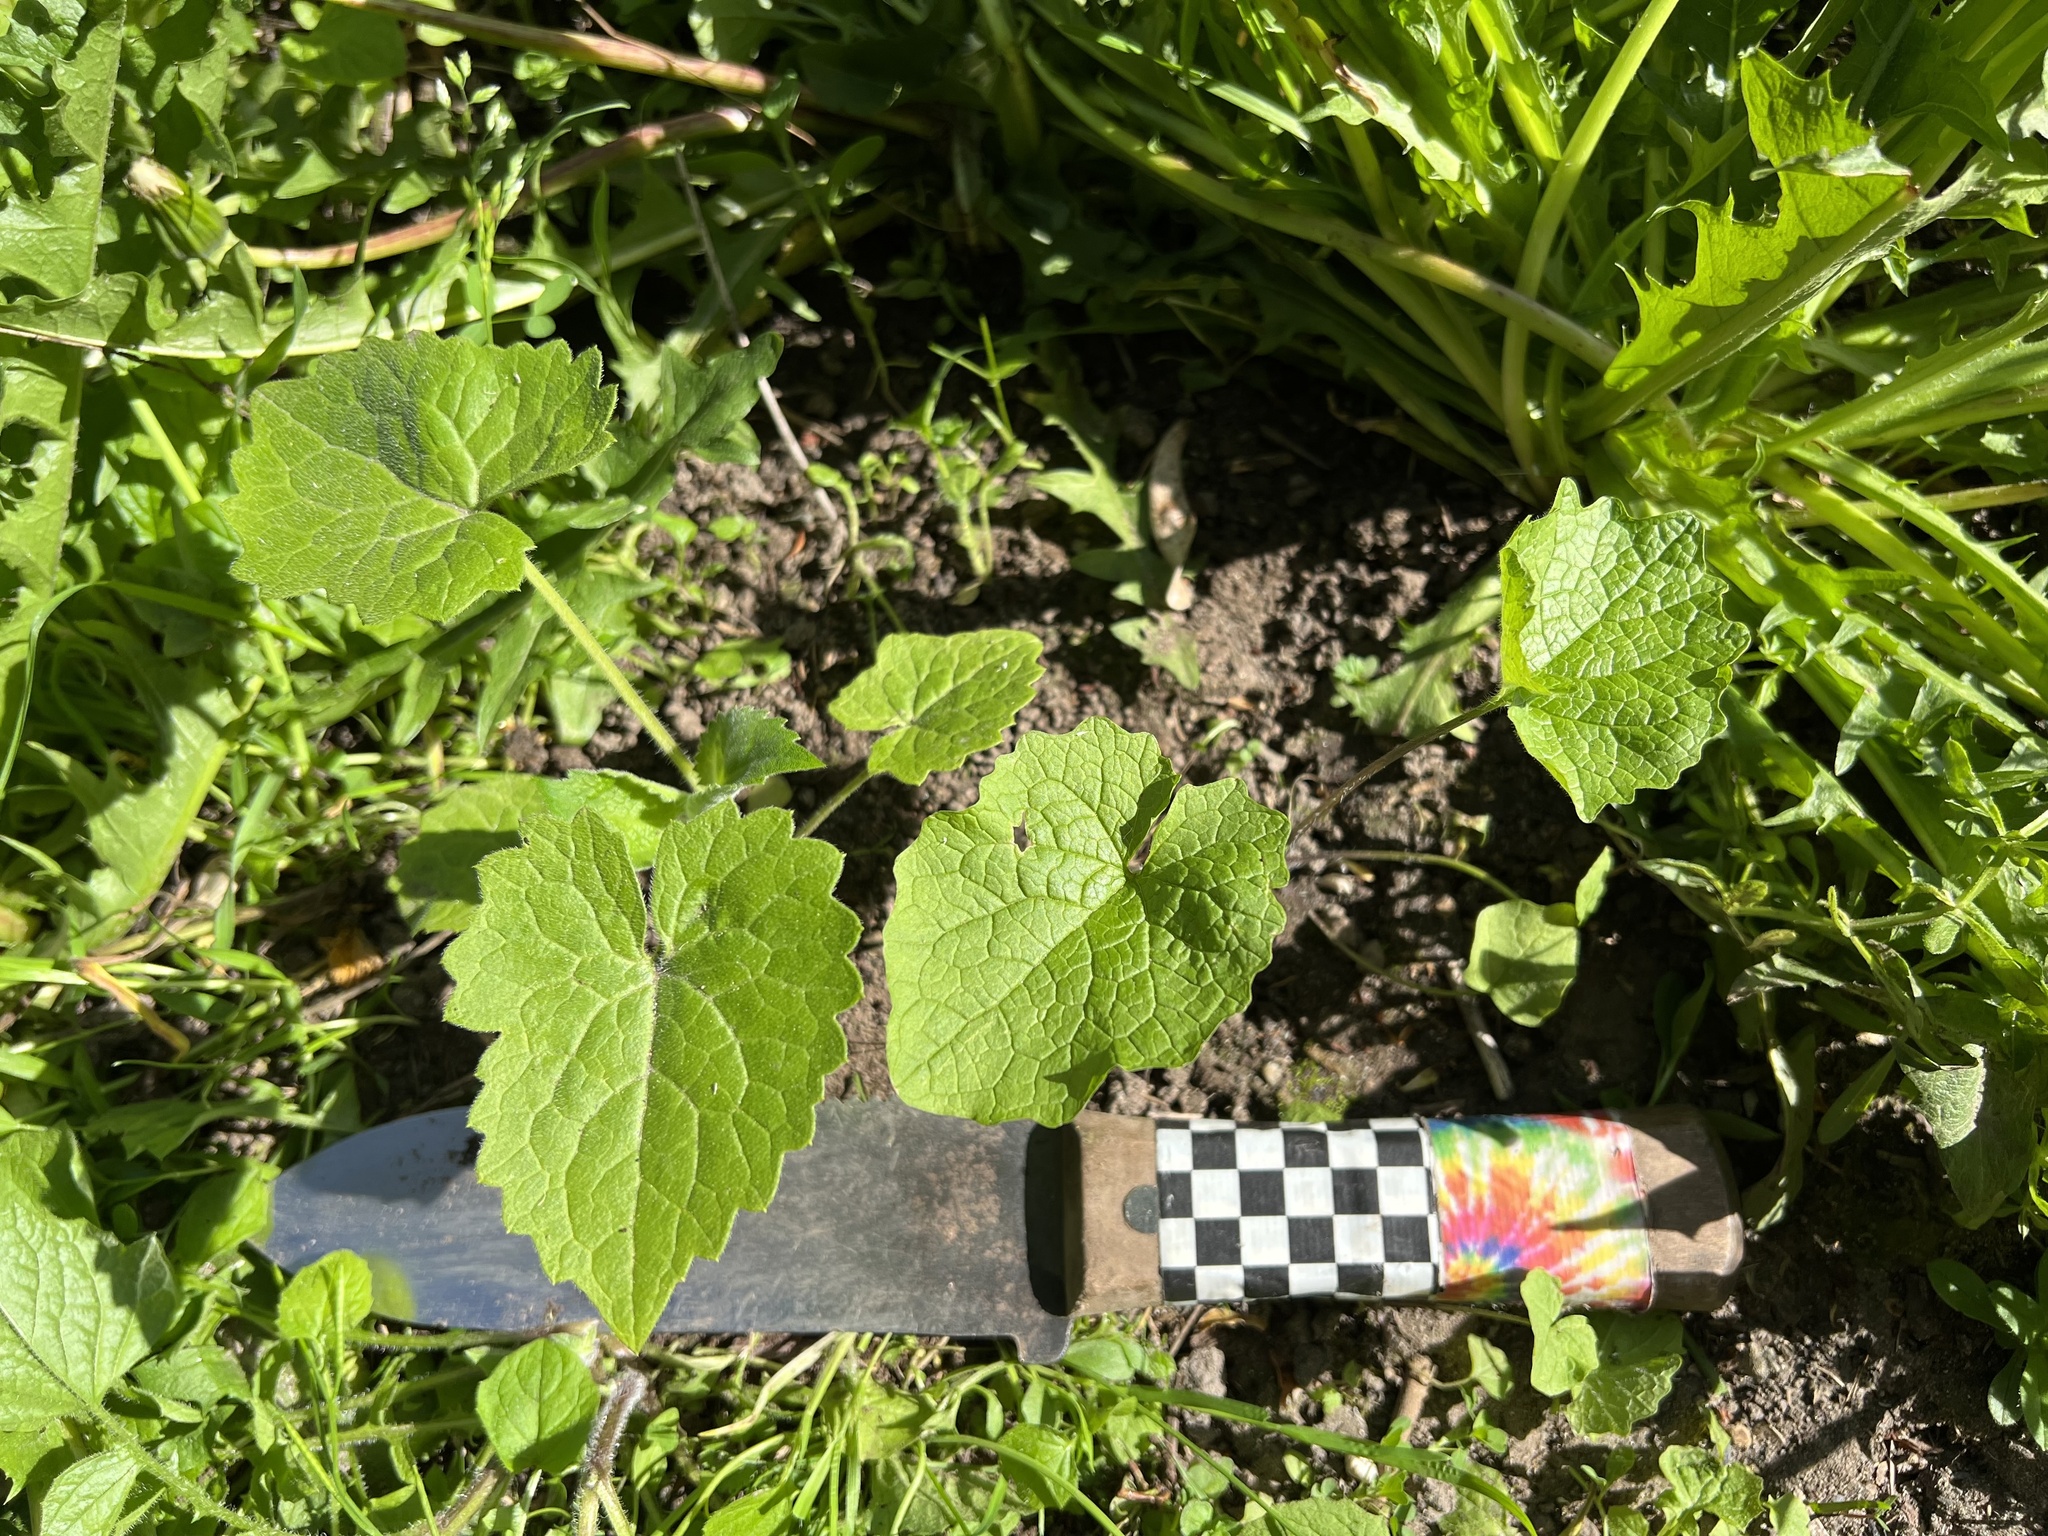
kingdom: Plantae
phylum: Tracheophyta
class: Magnoliopsida
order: Brassicales
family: Brassicaceae
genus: Lunaria
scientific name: Lunaria annua
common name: Honesty
